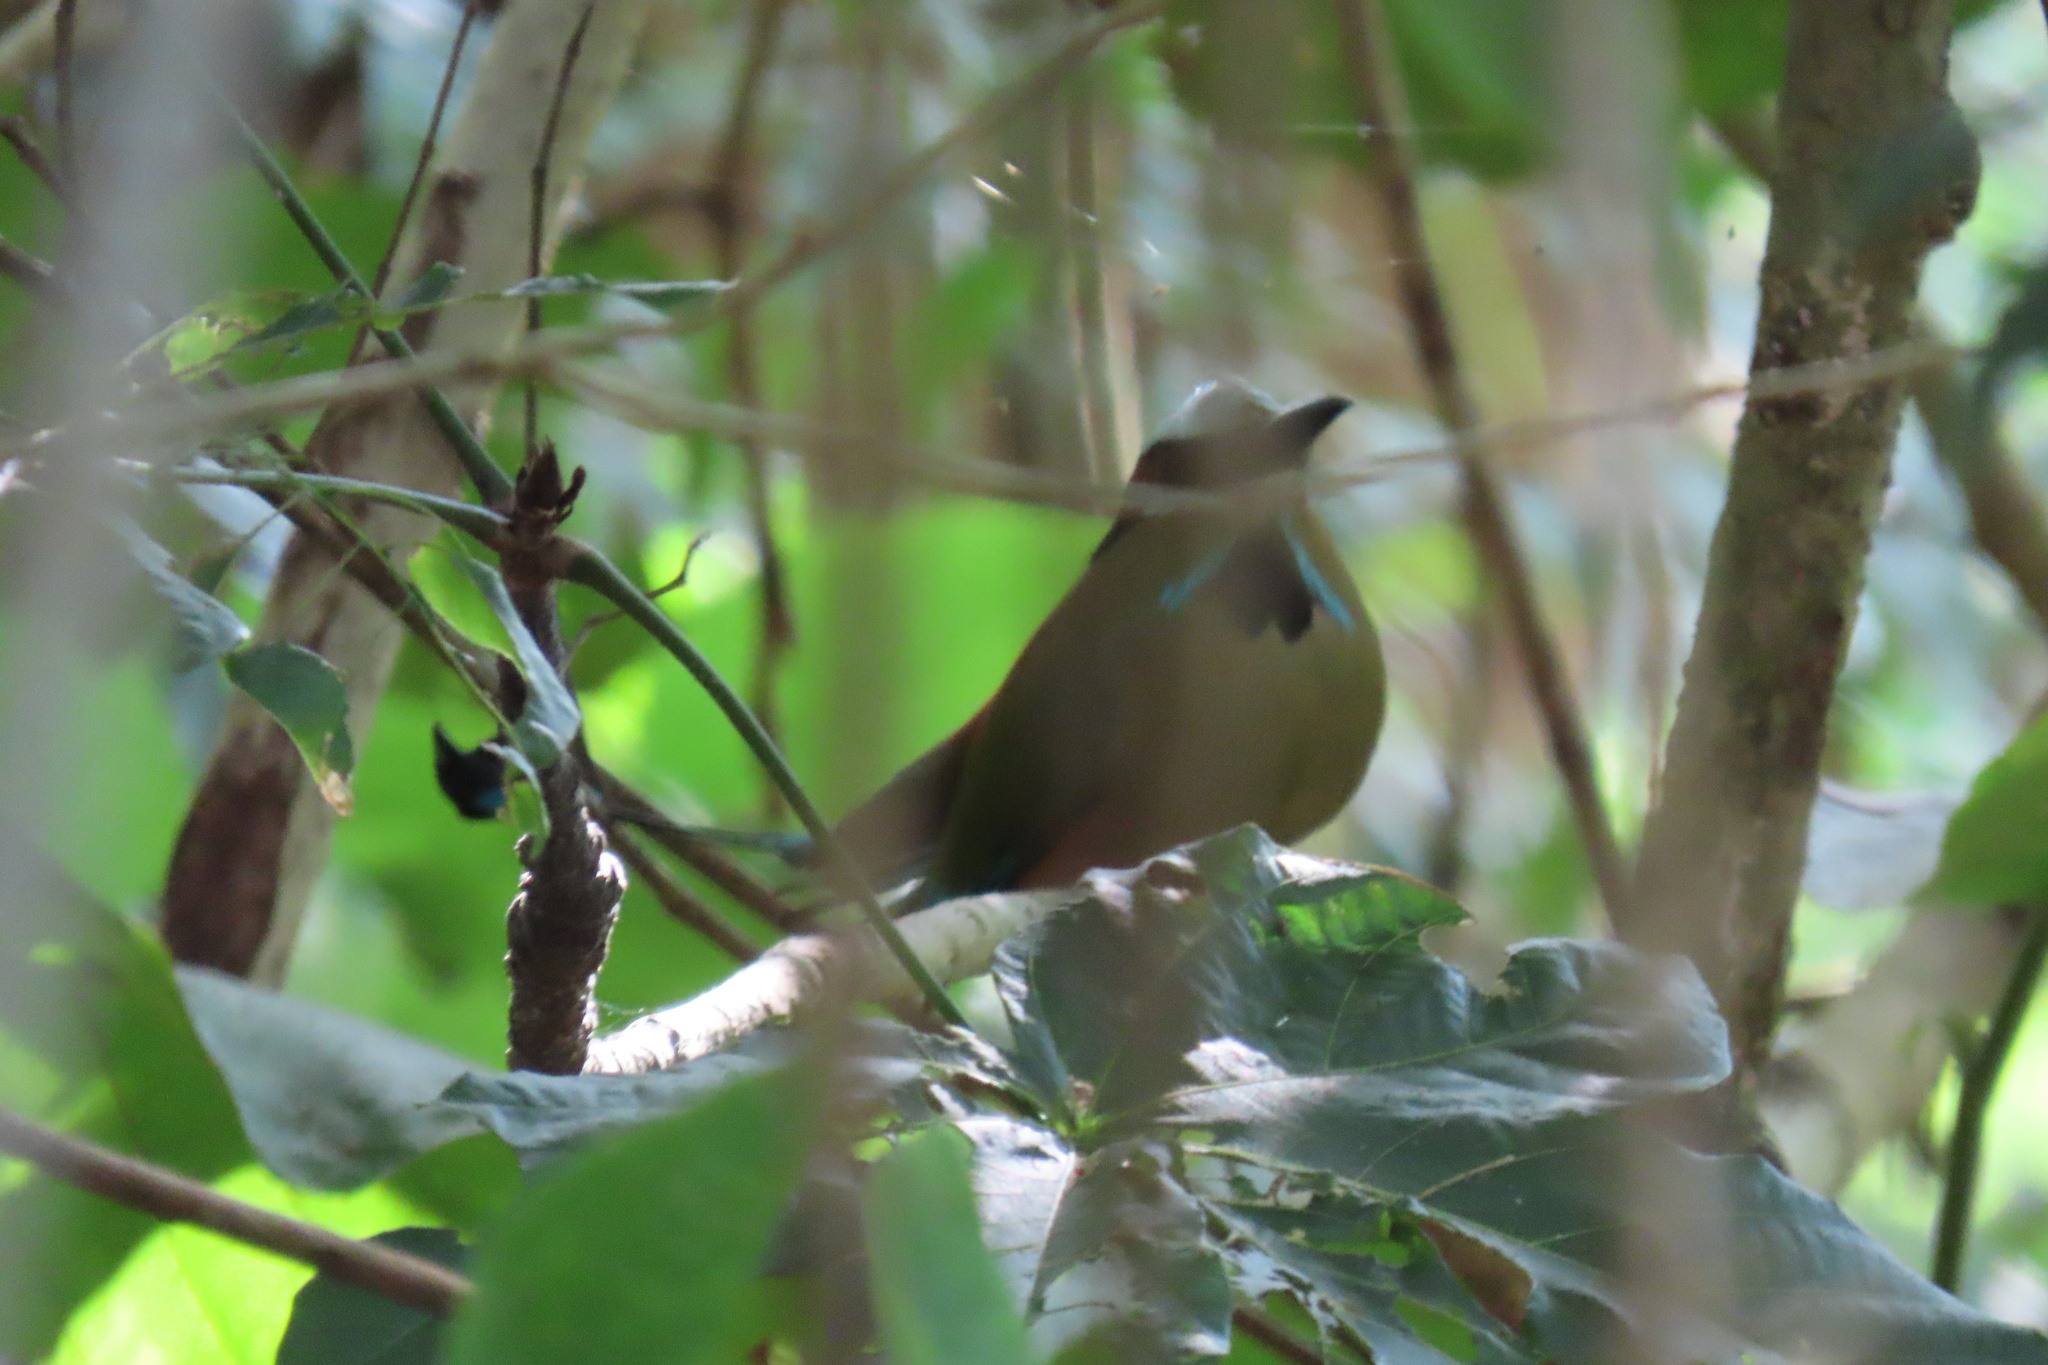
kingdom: Animalia
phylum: Chordata
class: Aves
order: Coraciiformes
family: Momotidae
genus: Eumomota
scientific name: Eumomota superciliosa
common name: Turquoise-browed motmot
